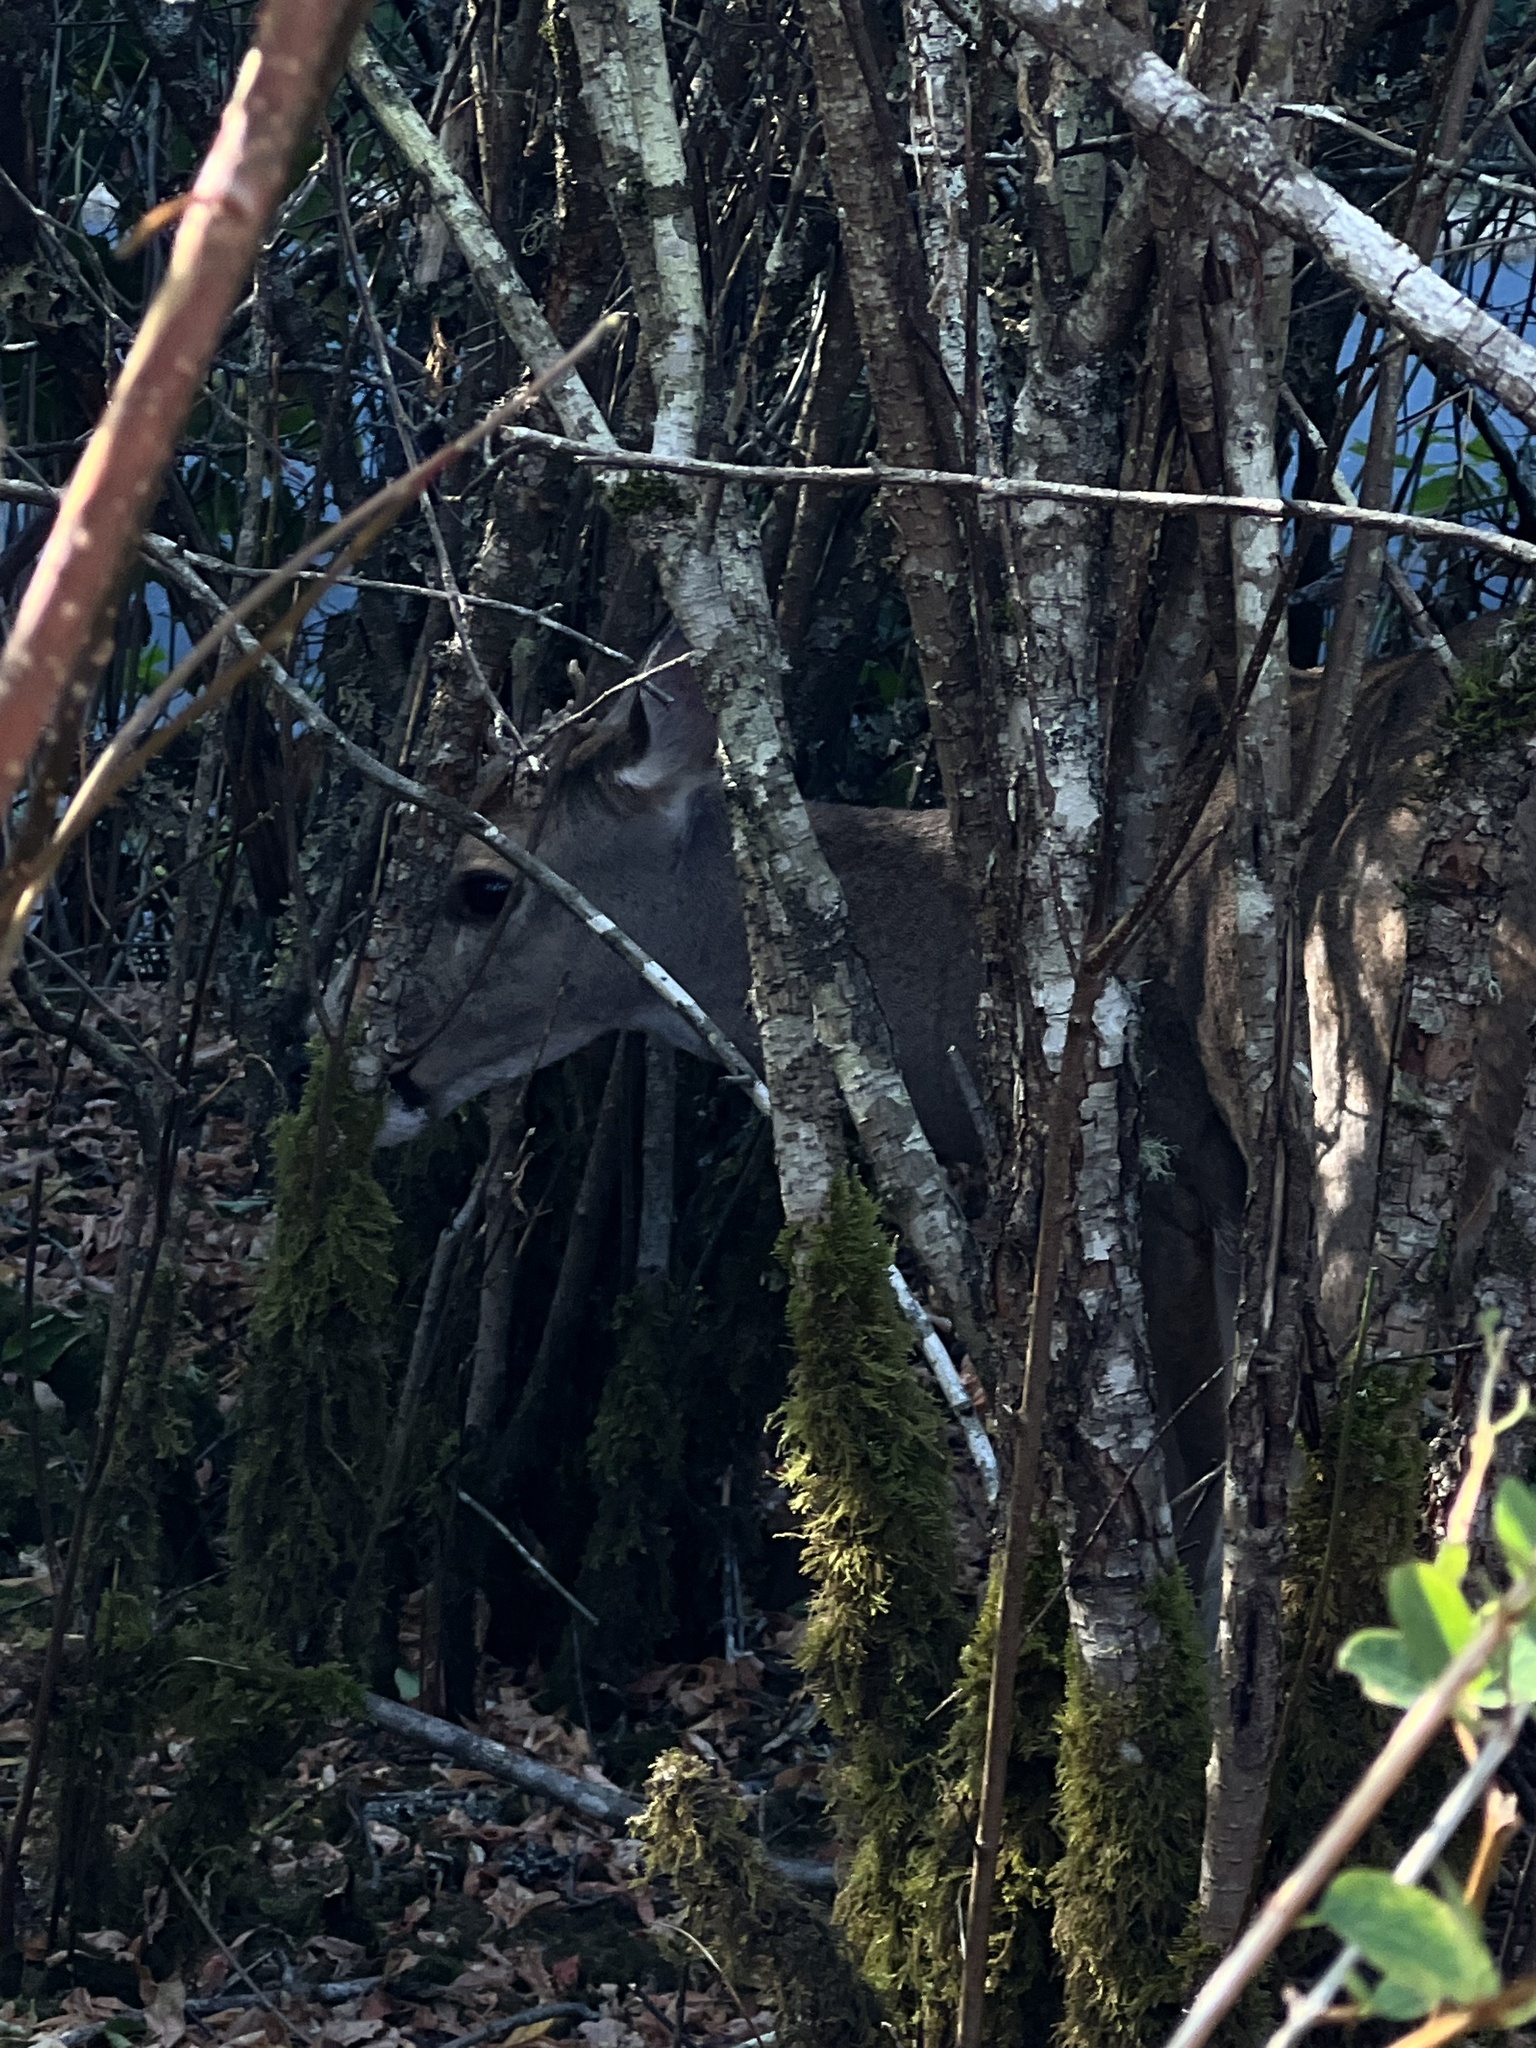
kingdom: Animalia
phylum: Chordata
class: Mammalia
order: Artiodactyla
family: Cervidae
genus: Odocoileus
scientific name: Odocoileus hemionus
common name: Mule deer
